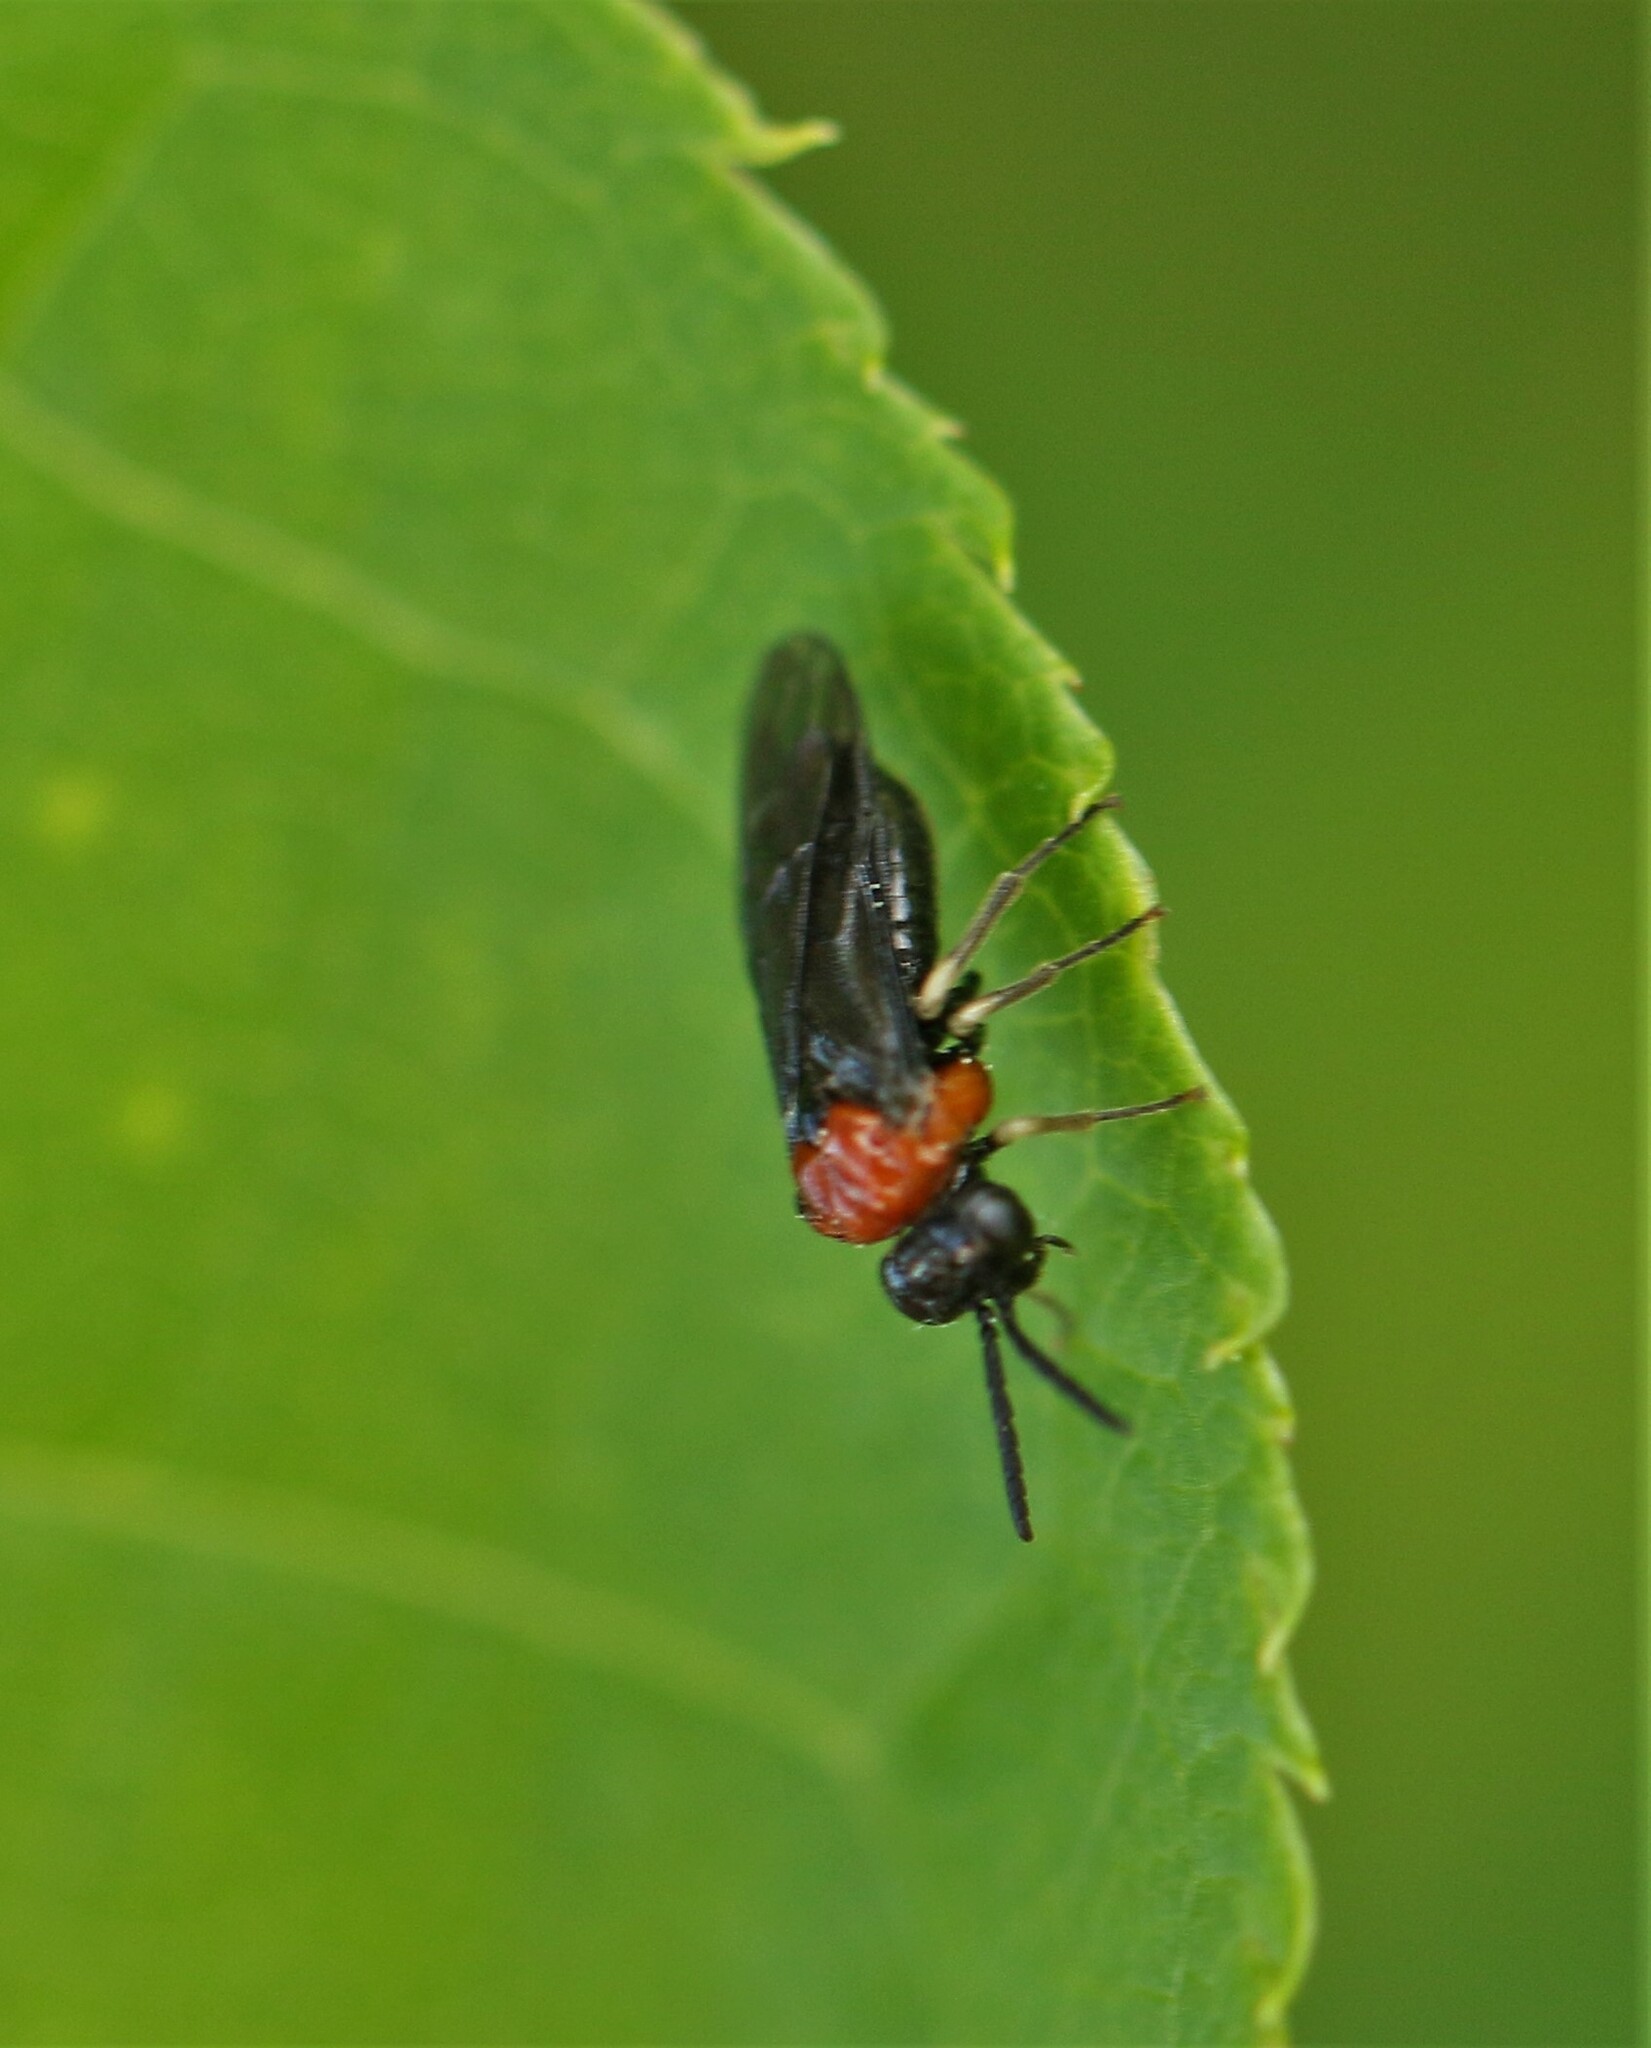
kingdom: Animalia
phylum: Arthropoda
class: Insecta
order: Hymenoptera
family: Tenthredinidae
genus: Eutomostethus
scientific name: Eutomostethus ephippium
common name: Tenthredid wasp
